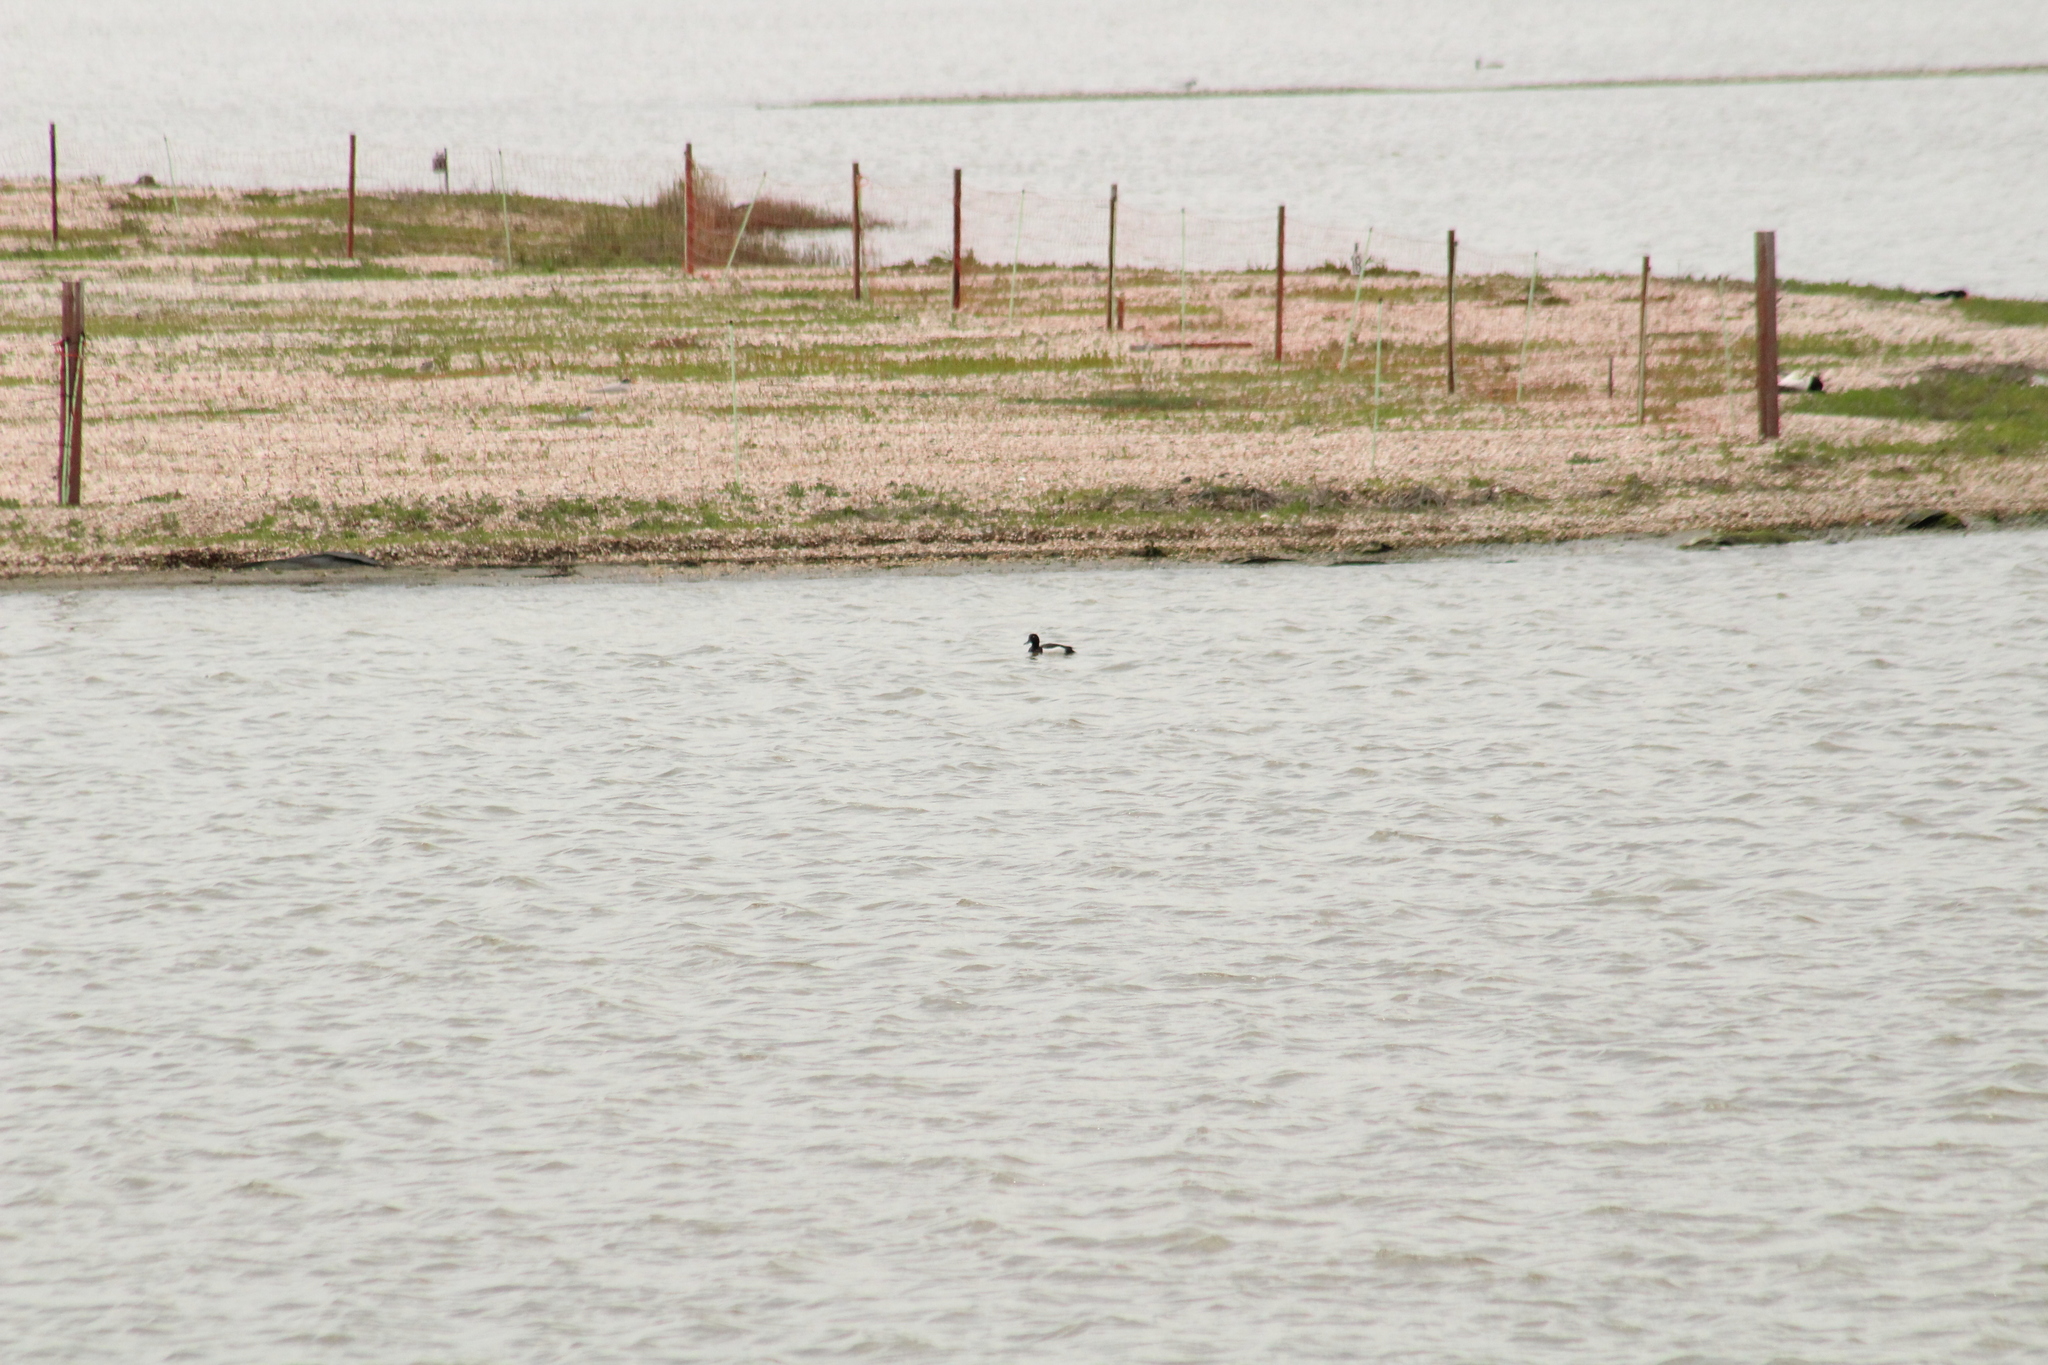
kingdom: Animalia
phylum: Chordata
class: Aves
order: Anseriformes
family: Anatidae
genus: Aythya
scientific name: Aythya fuligula
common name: Tufted duck
